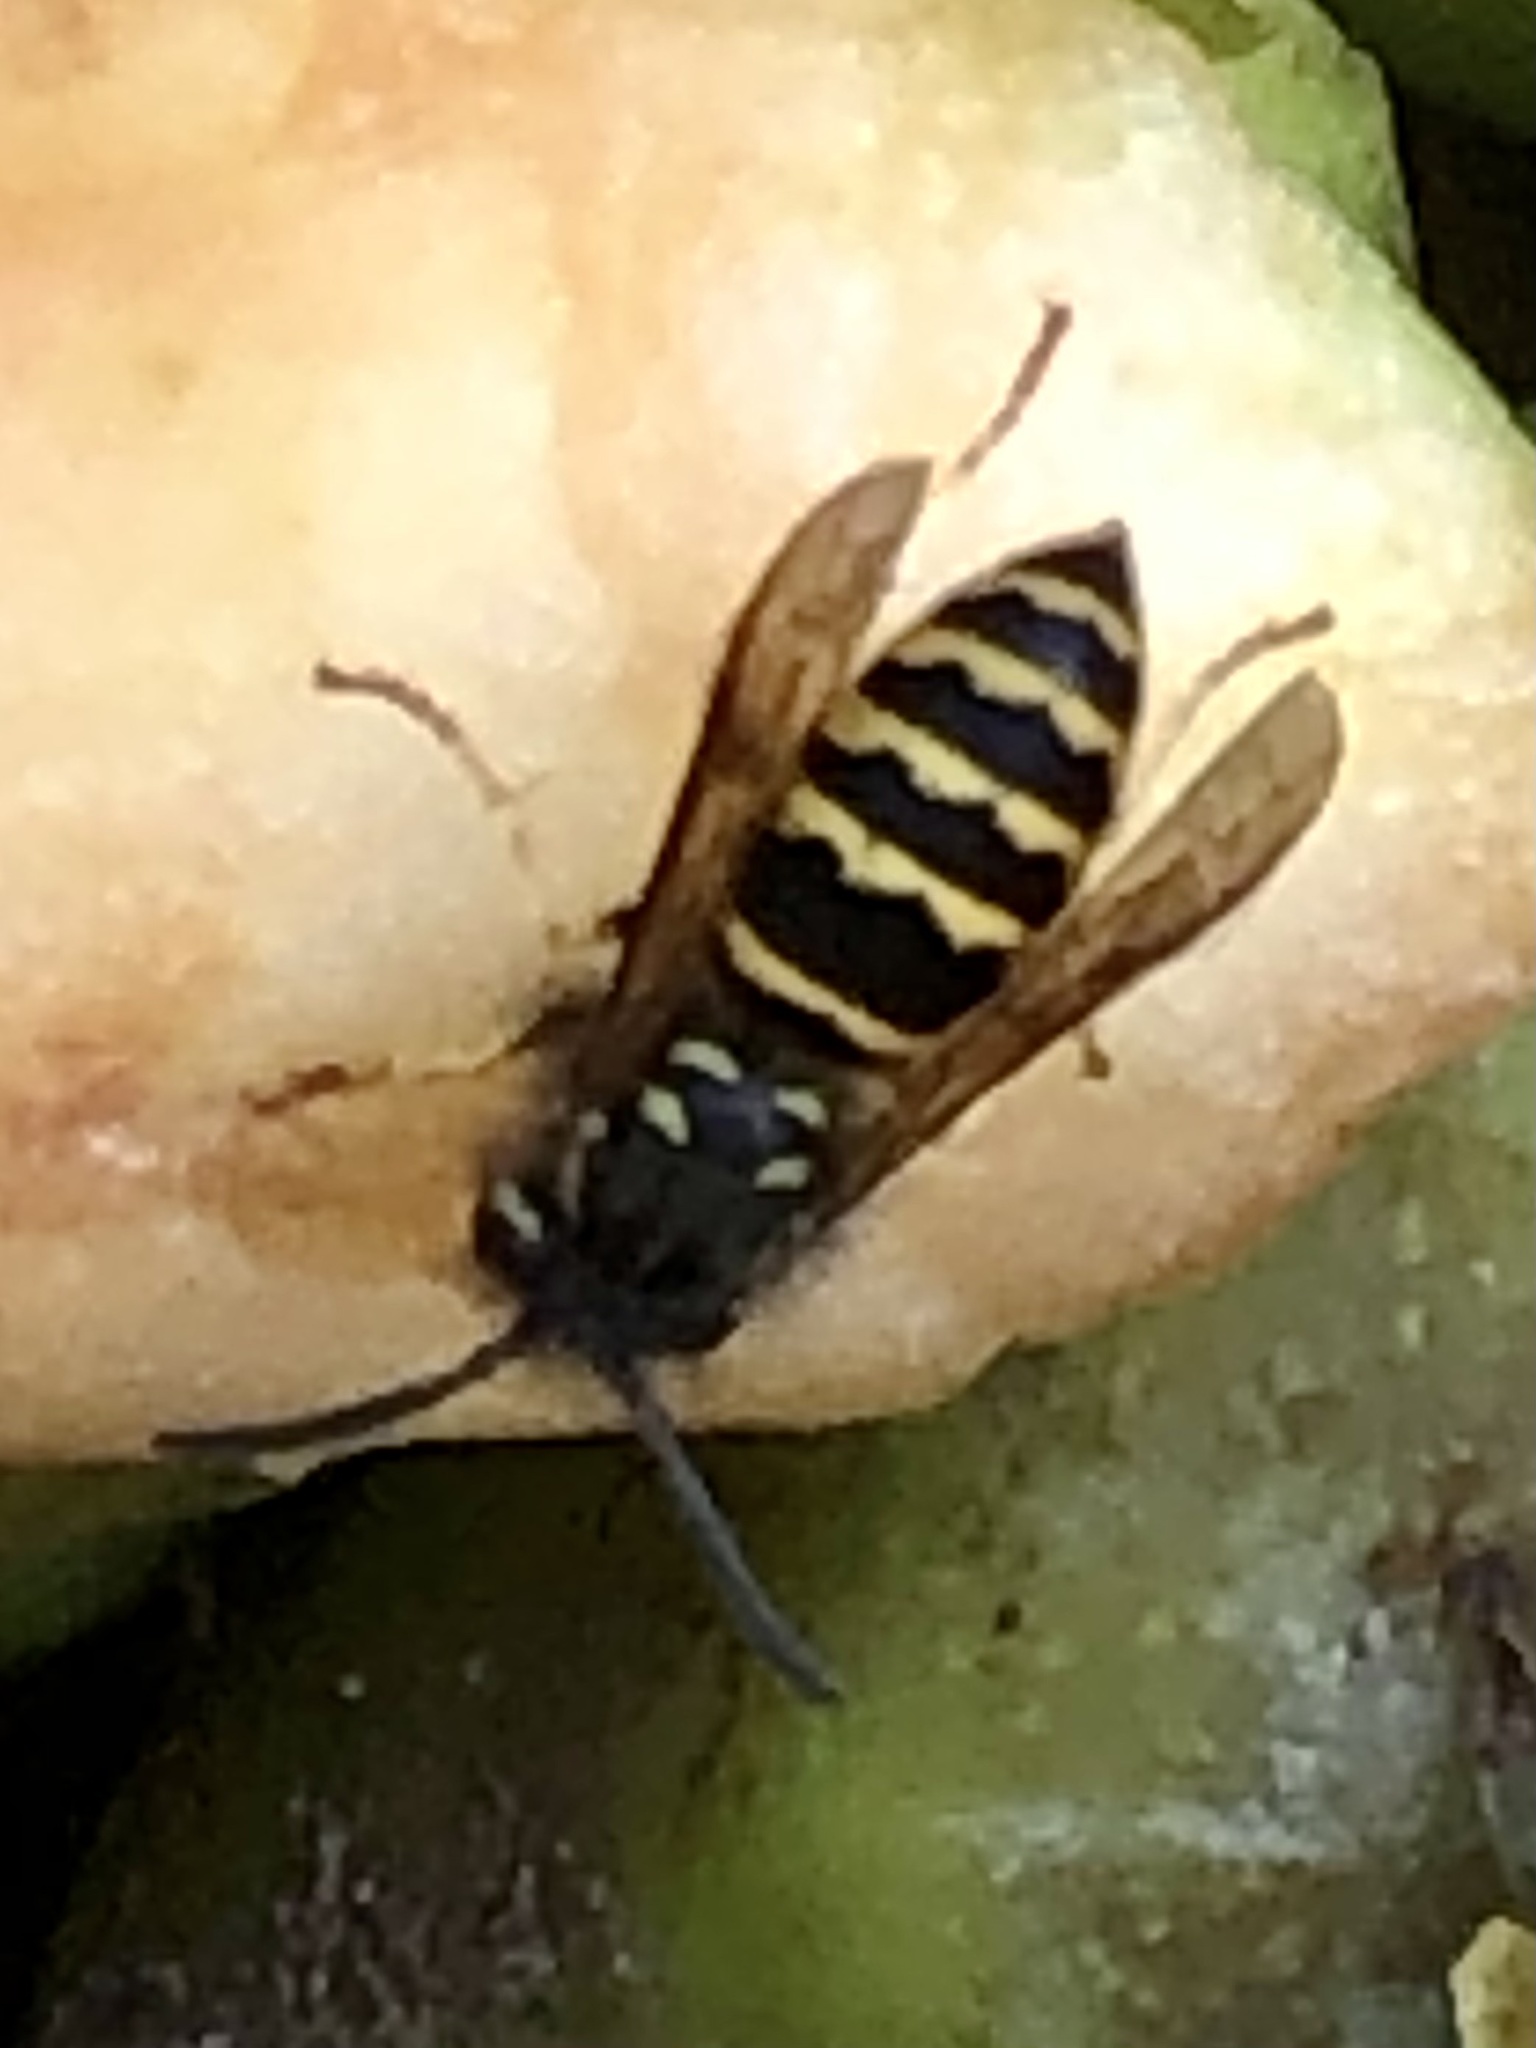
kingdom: Animalia
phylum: Arthropoda
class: Insecta
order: Hymenoptera
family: Vespidae
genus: Vespula
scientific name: Vespula alascensis
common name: Alaska yellowjacket
